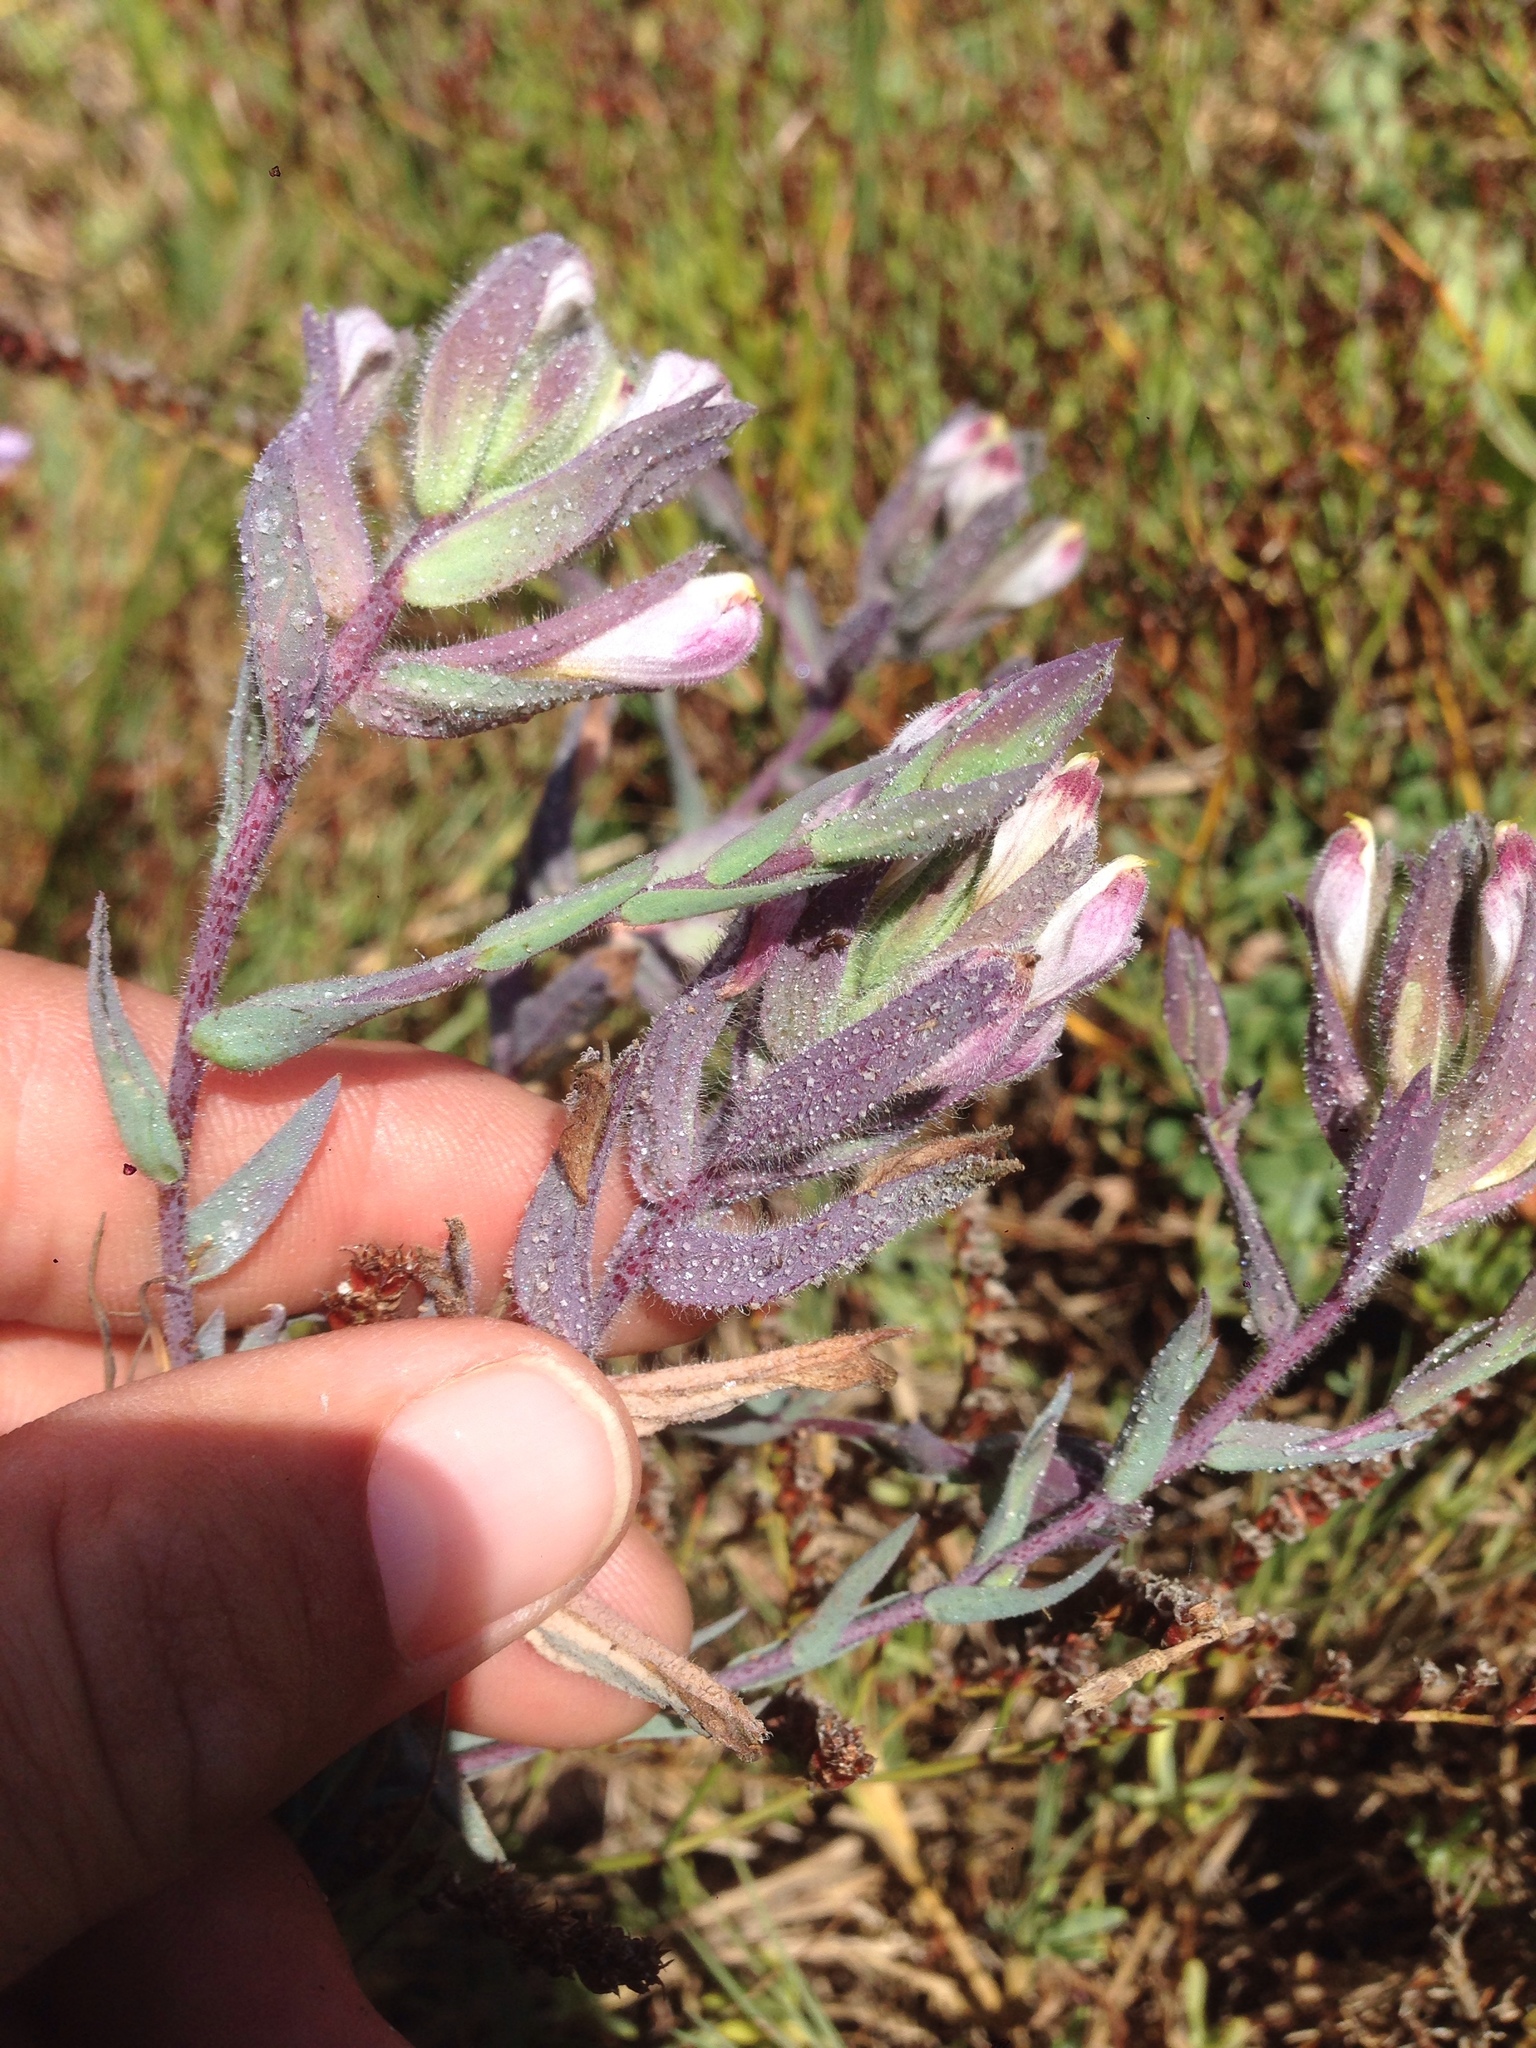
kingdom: Plantae
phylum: Tracheophyta
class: Magnoliopsida
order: Lamiales
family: Orobanchaceae
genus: Chloropyron
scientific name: Chloropyron maritimum
